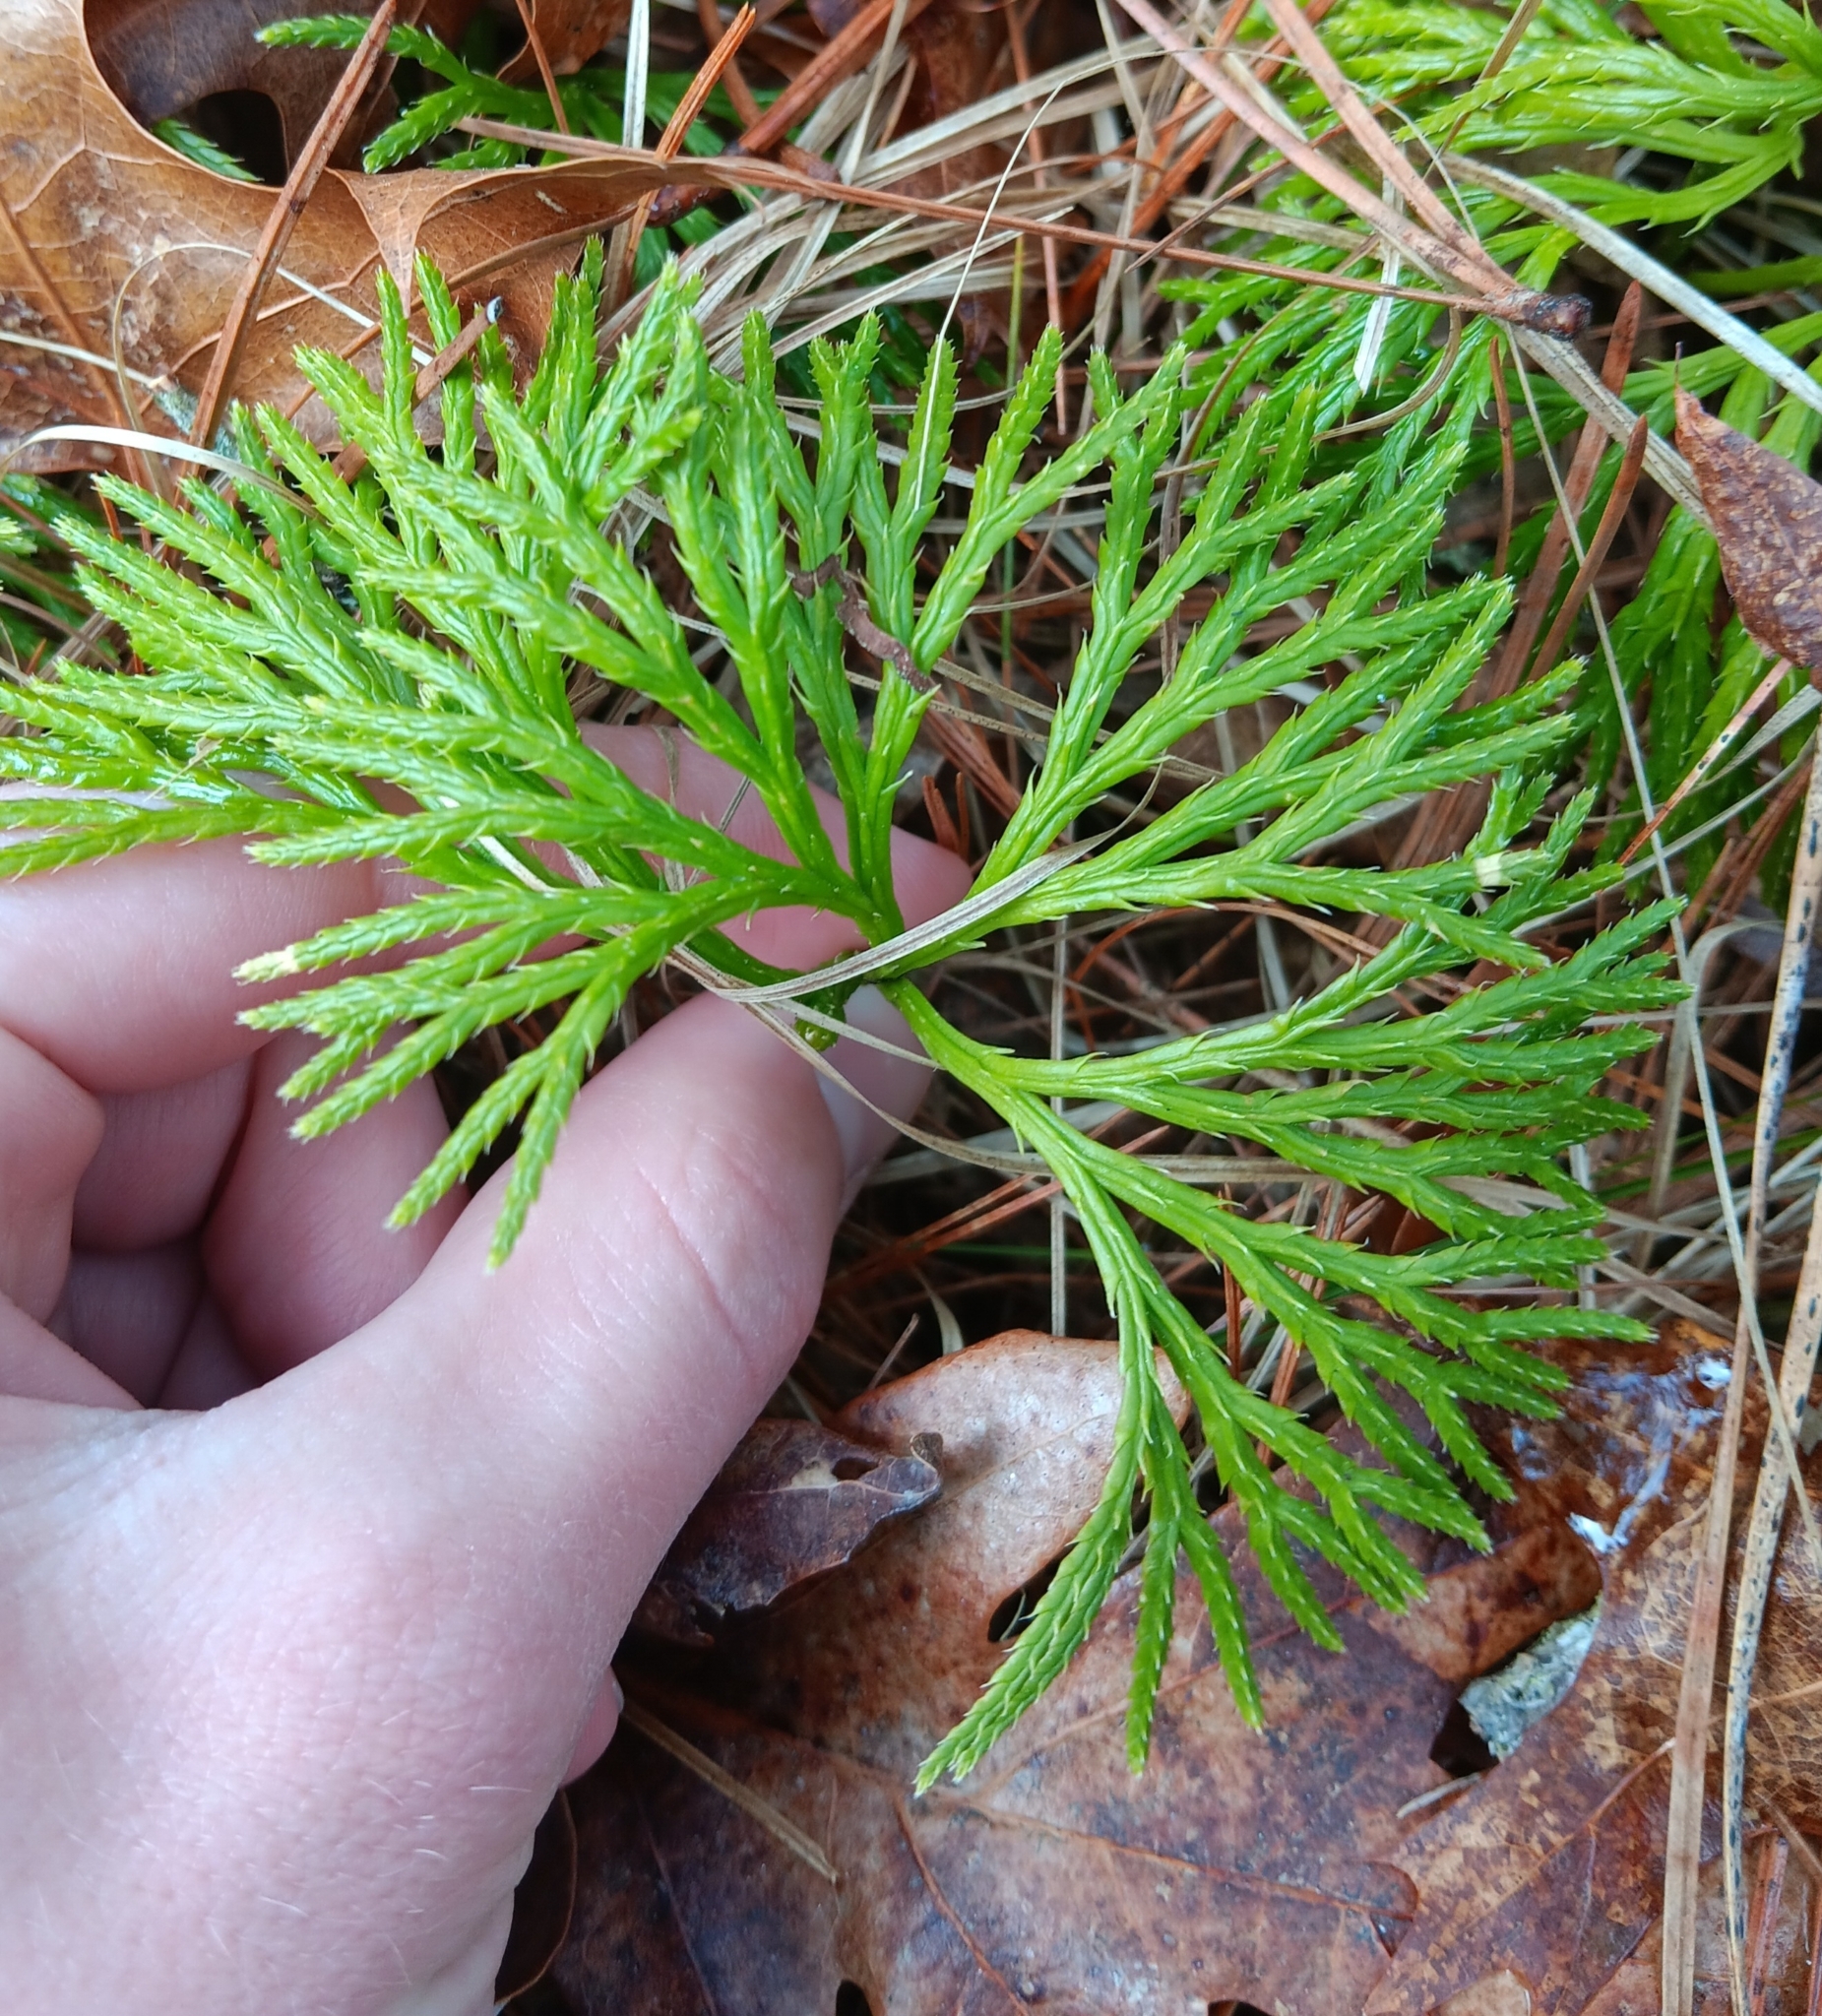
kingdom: Plantae
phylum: Tracheophyta
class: Lycopodiopsida
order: Lycopodiales
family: Lycopodiaceae
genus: Diphasiastrum
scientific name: Diphasiastrum digitatum
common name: Southern running-pine
